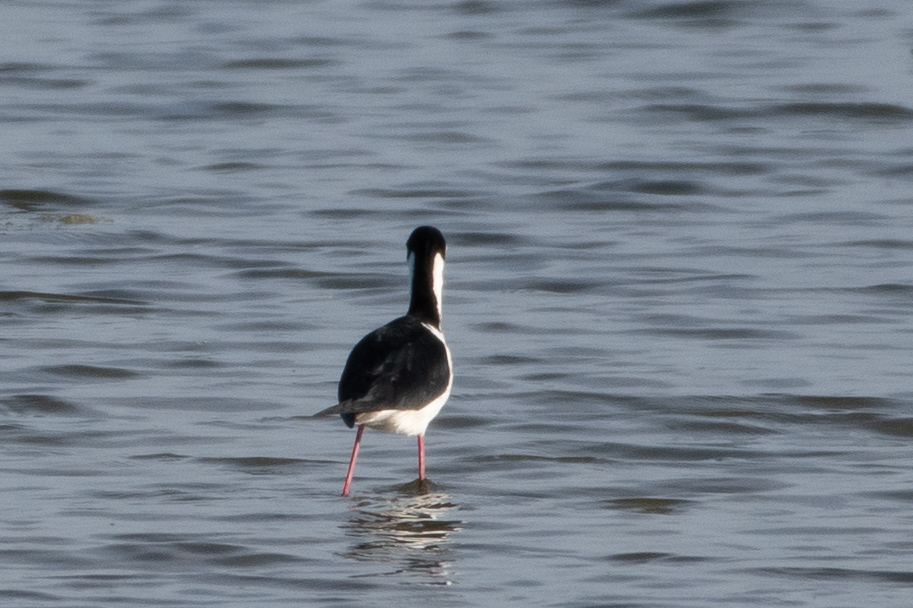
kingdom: Animalia
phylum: Chordata
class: Aves
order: Charadriiformes
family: Recurvirostridae
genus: Himantopus
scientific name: Himantopus mexicanus
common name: Black-necked stilt
